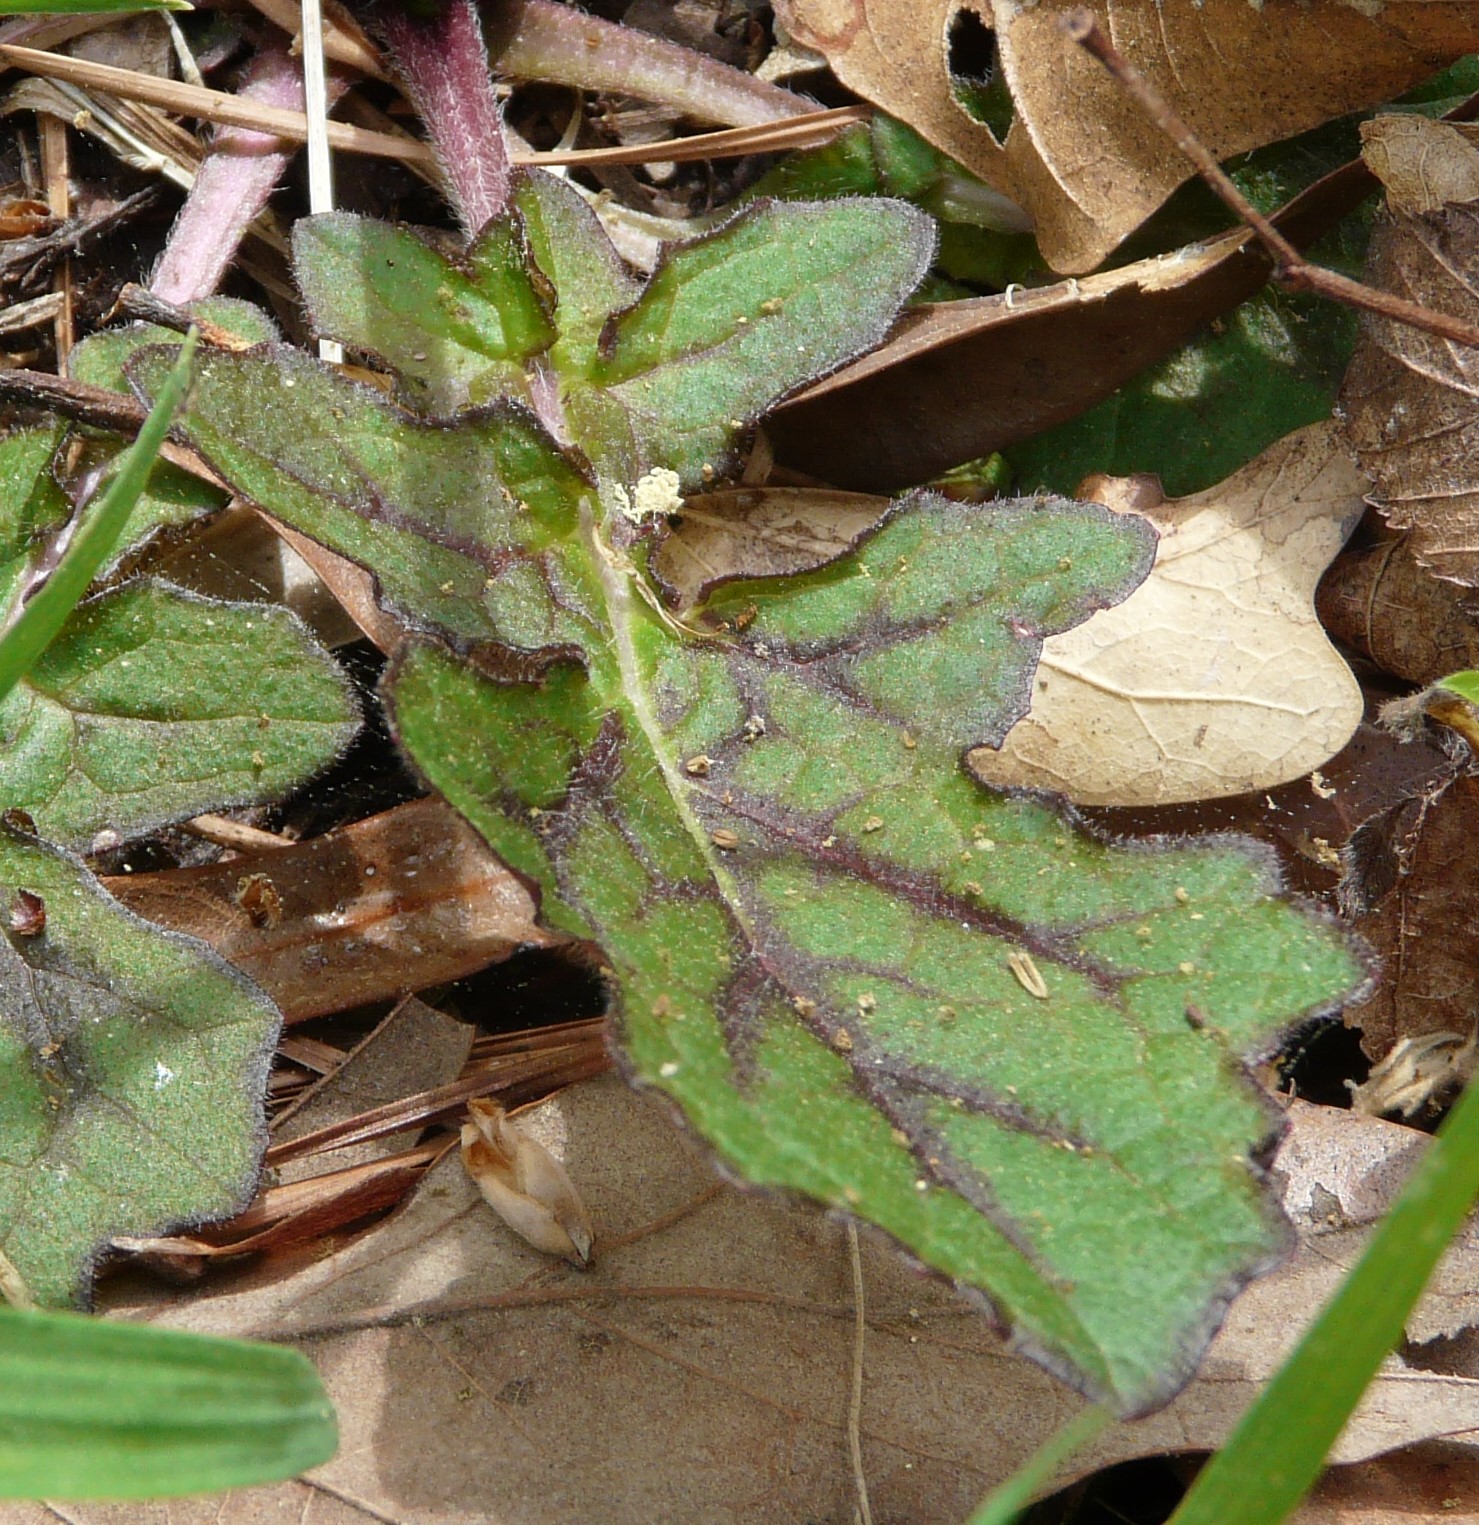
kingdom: Plantae
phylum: Tracheophyta
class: Magnoliopsida
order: Lamiales
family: Lamiaceae
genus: Salvia
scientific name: Salvia lyrata
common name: Cancerweed
